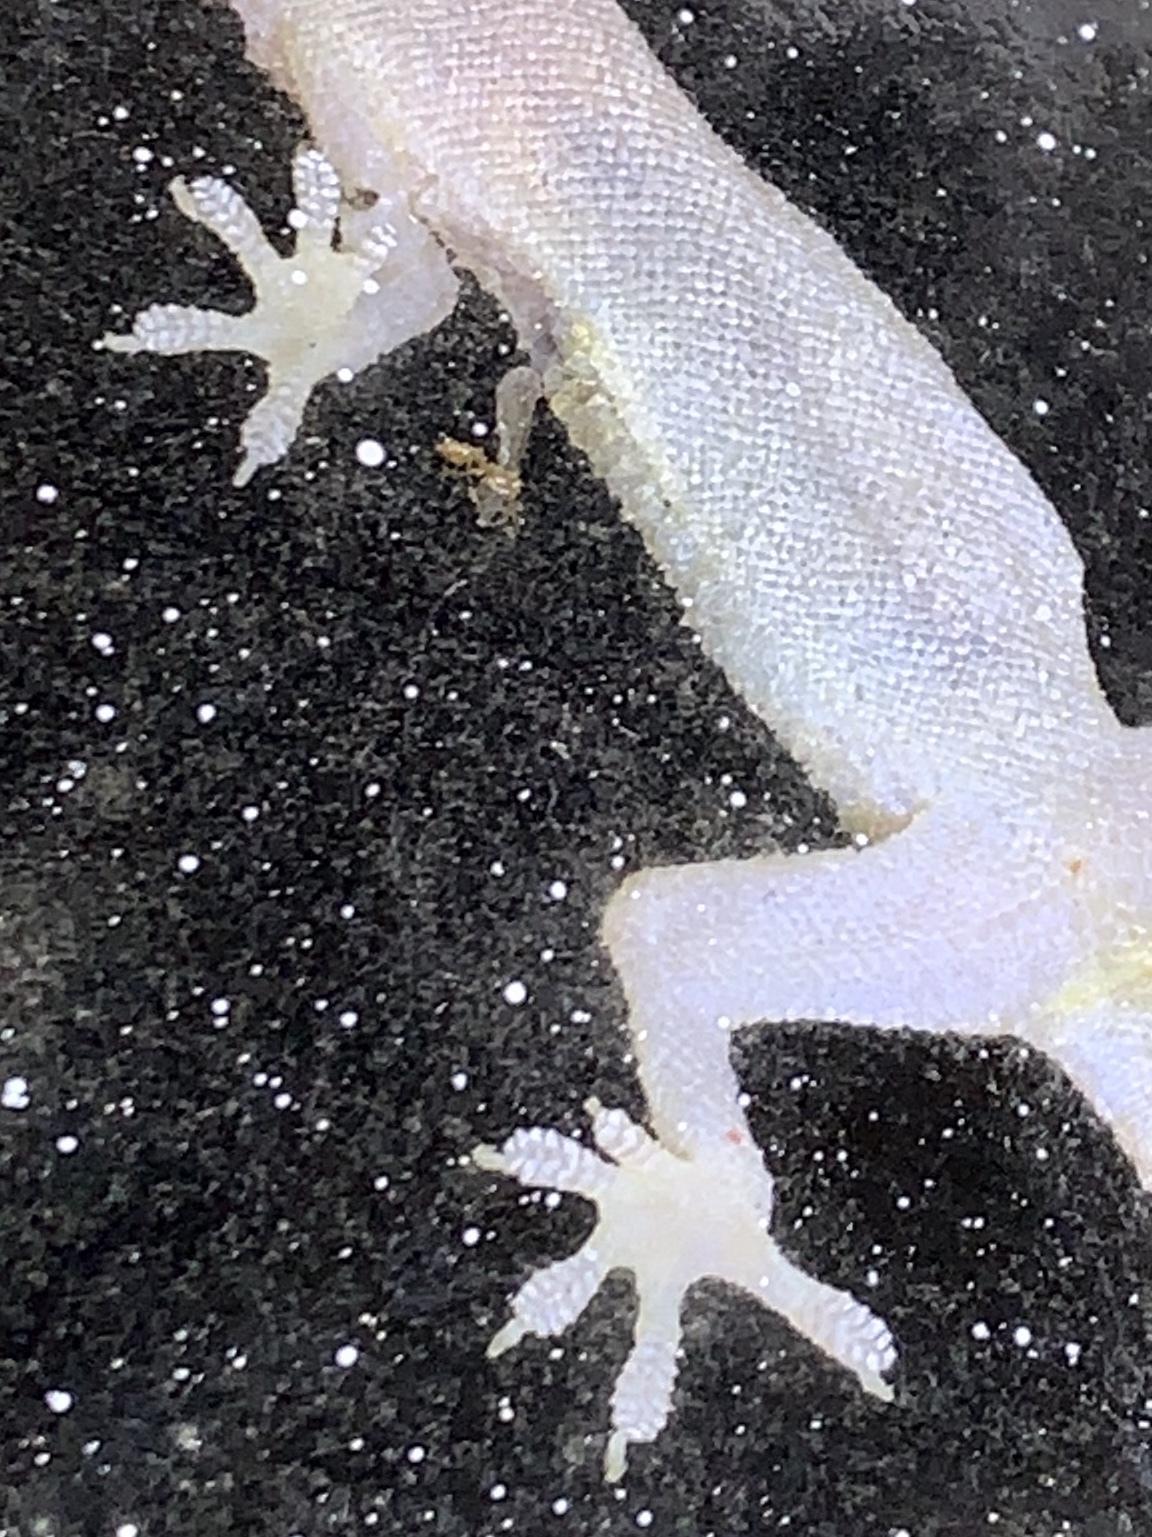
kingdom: Animalia
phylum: Chordata
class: Squamata
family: Gekkonidae
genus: Hemidactylus
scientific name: Hemidactylus mabouia
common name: House gecko
